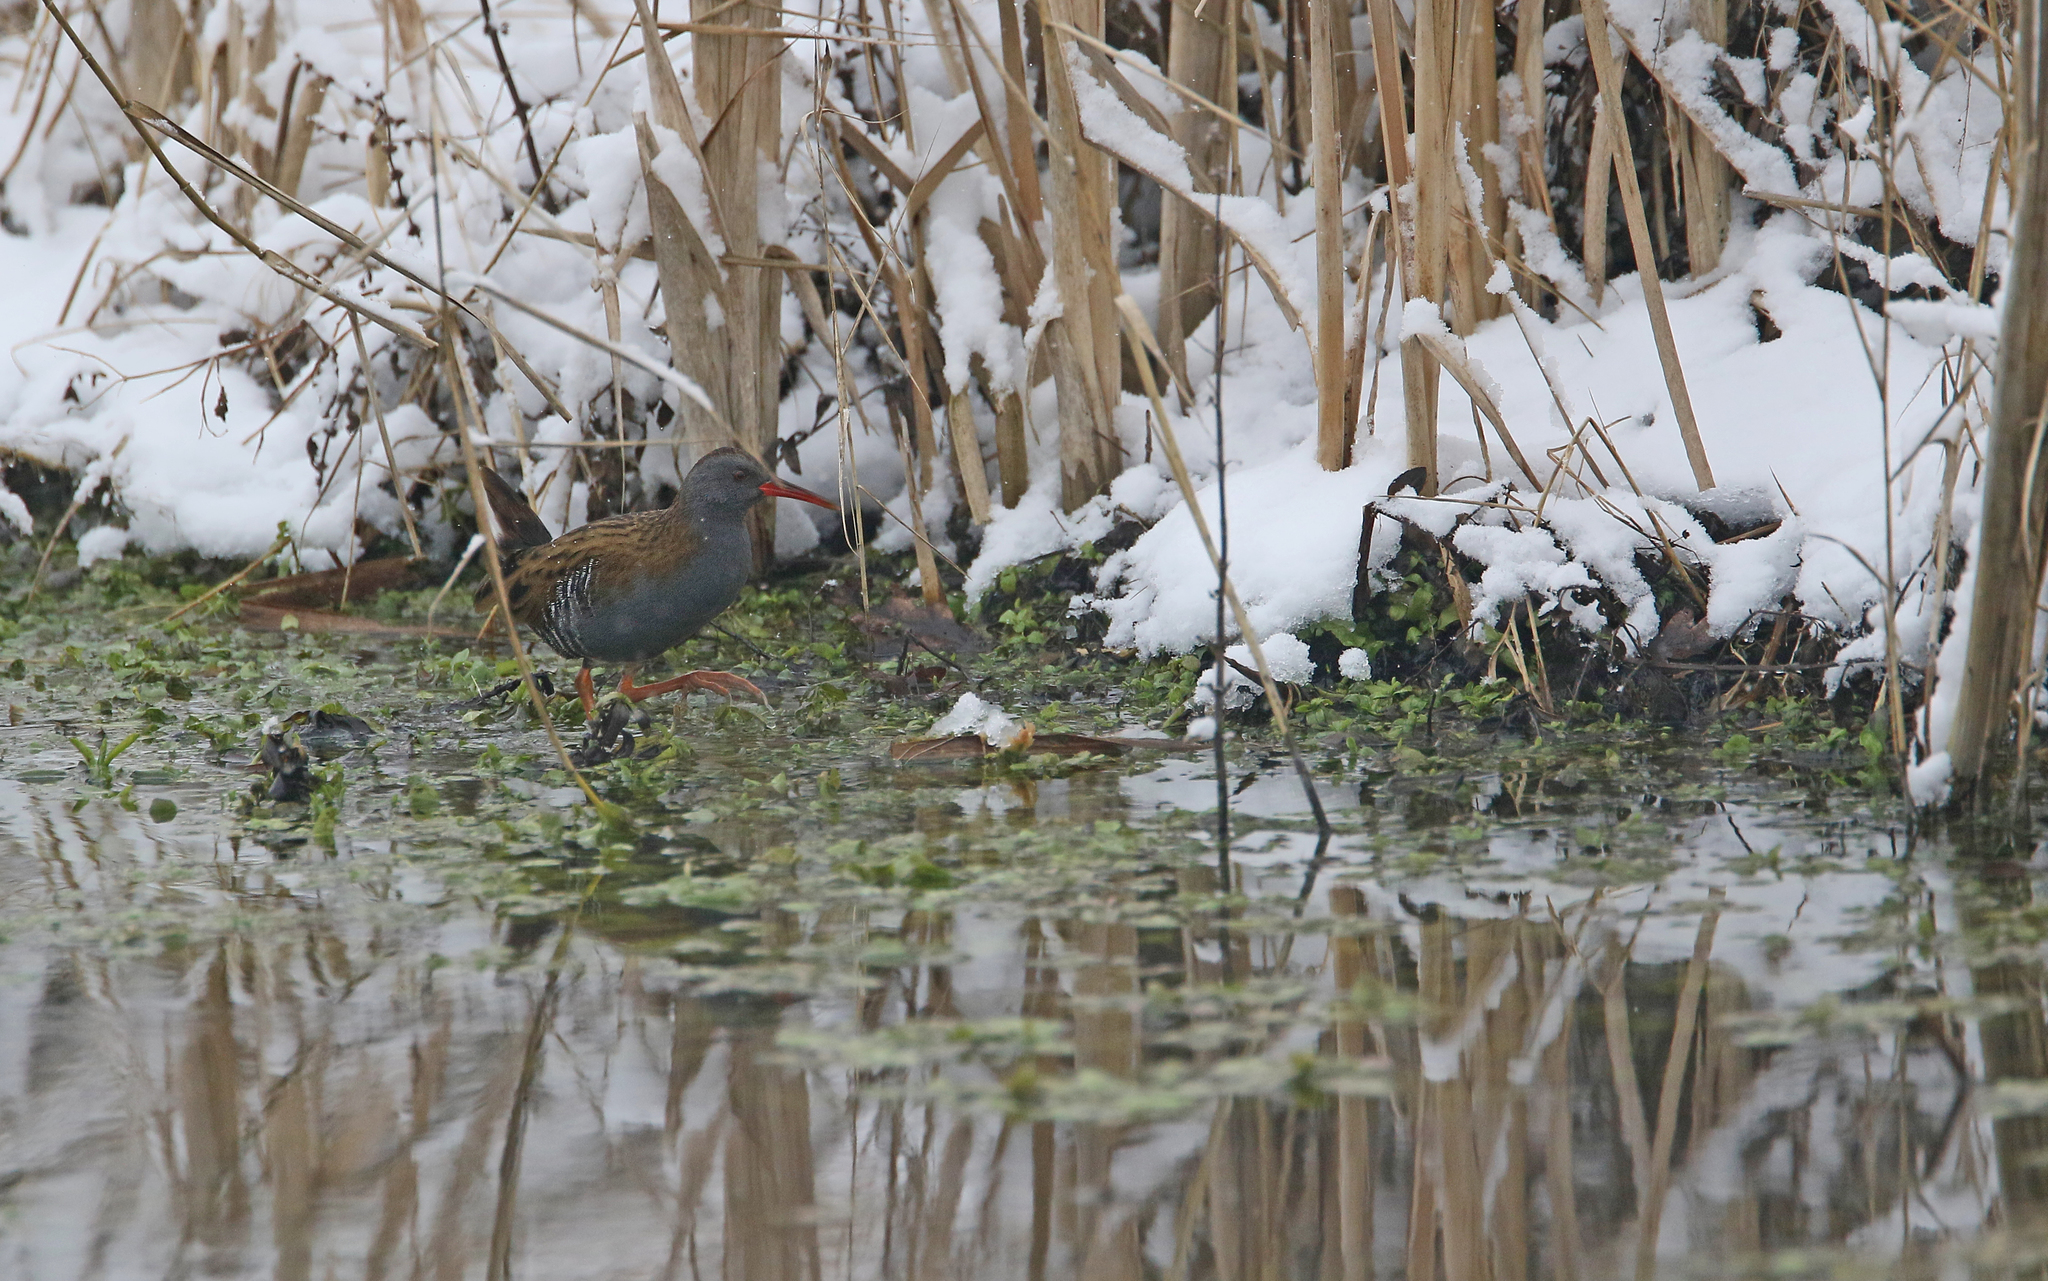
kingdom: Animalia
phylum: Chordata
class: Aves
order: Gruiformes
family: Rallidae
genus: Rallus
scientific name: Rallus aquaticus
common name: Water rail
